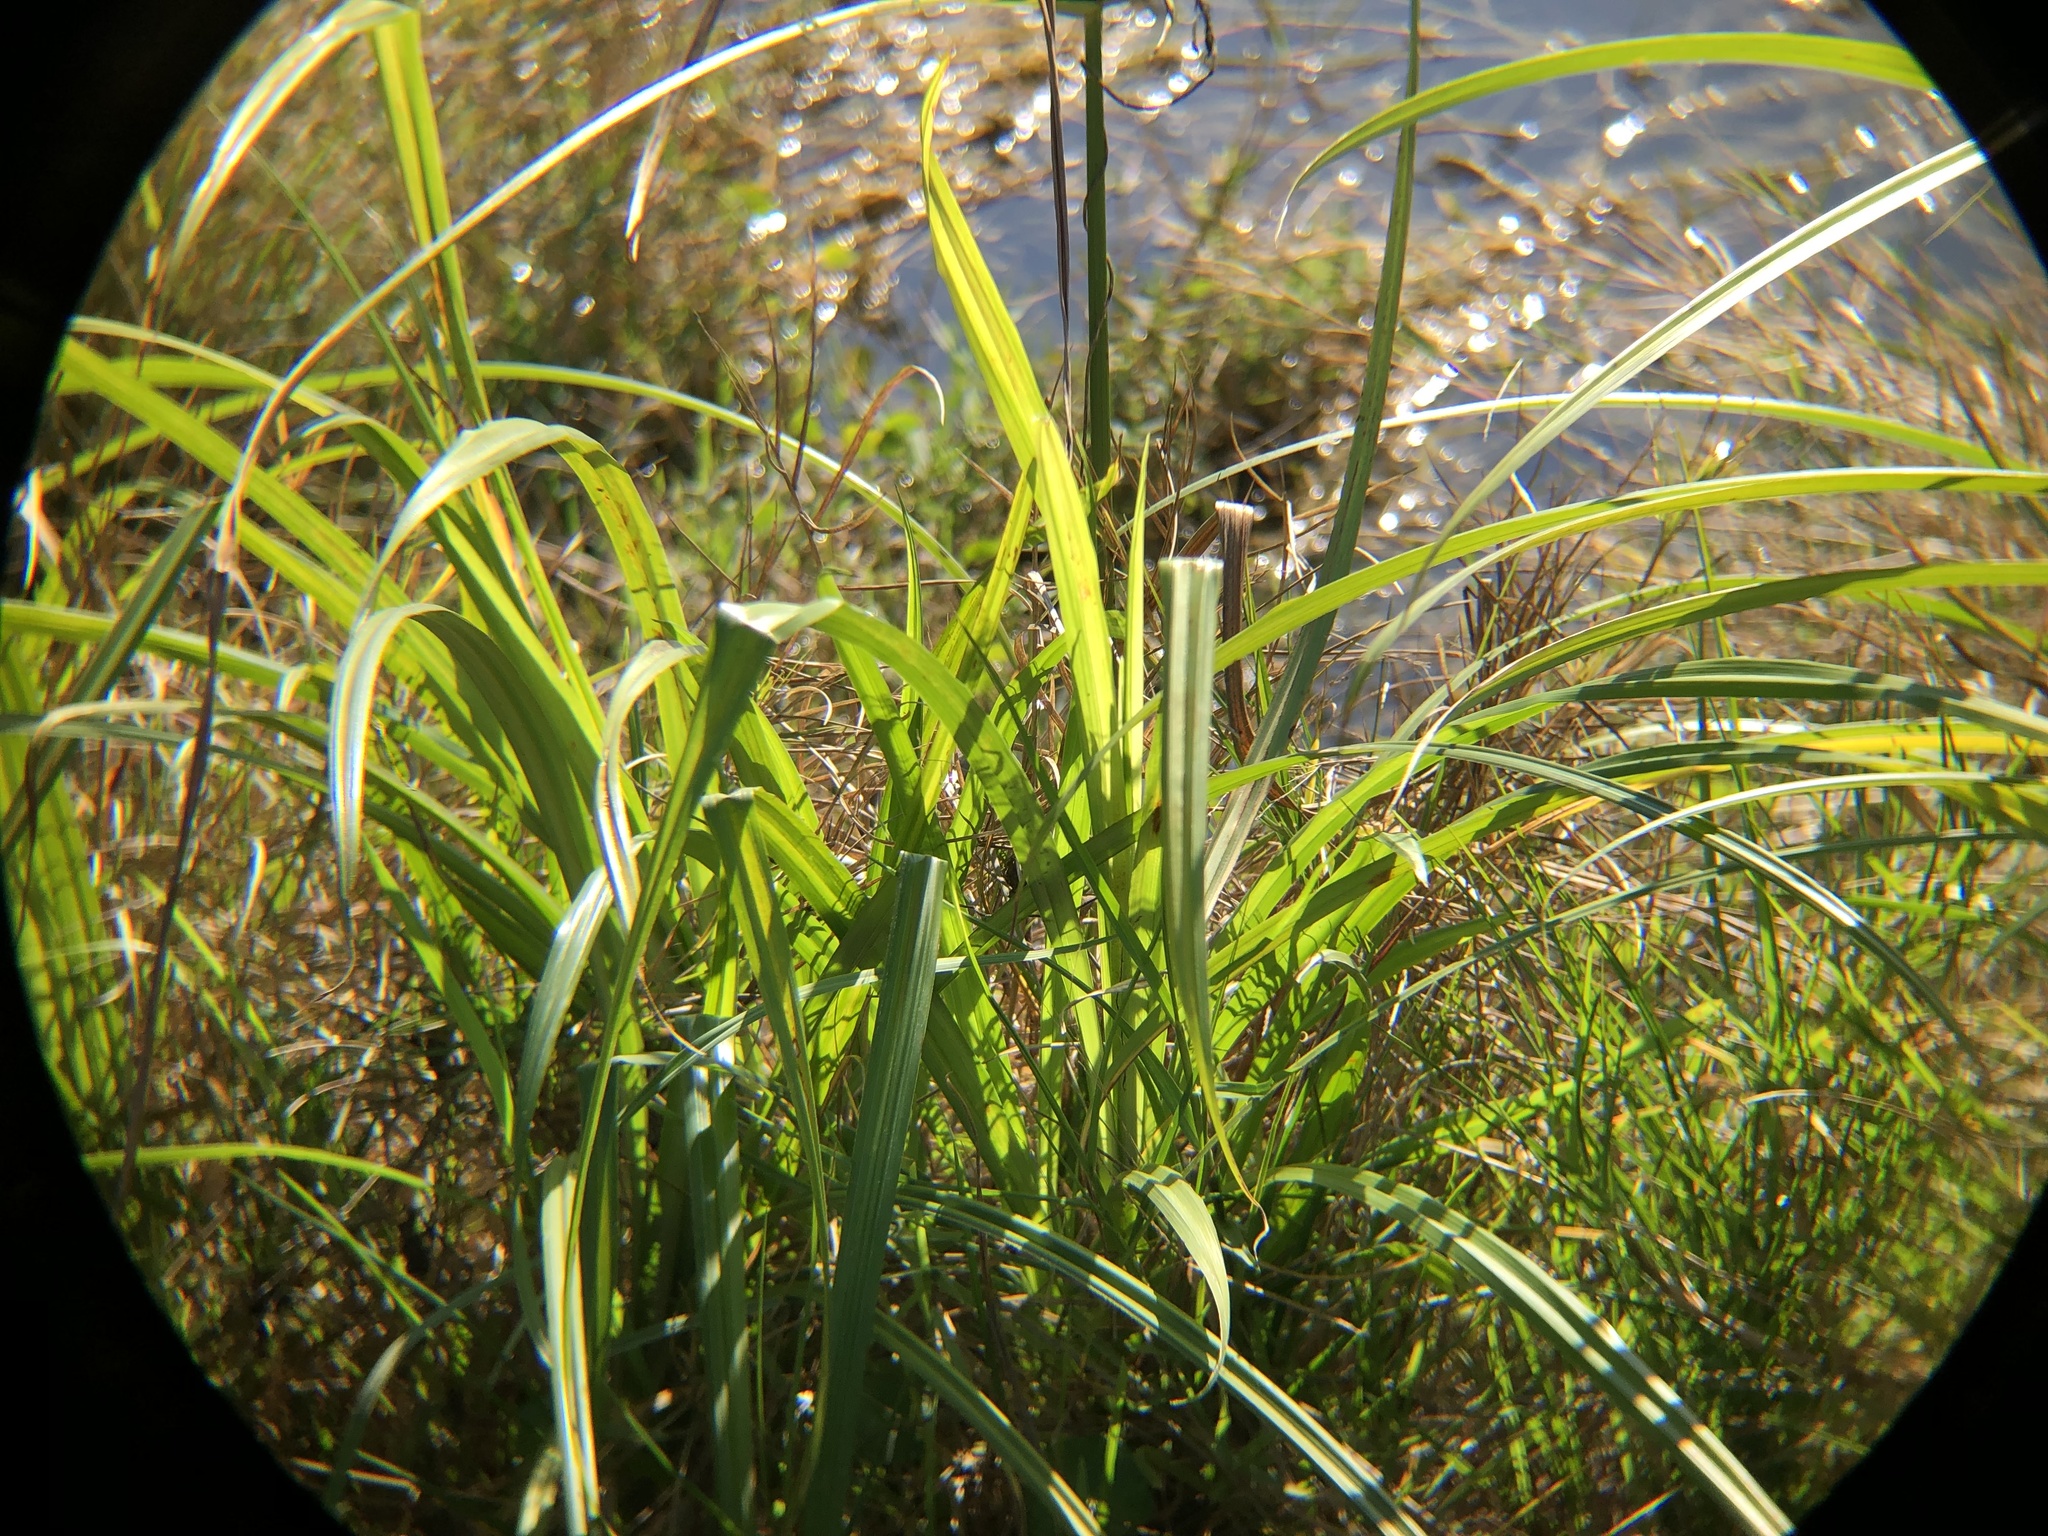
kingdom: Plantae
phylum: Tracheophyta
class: Liliopsida
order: Poales
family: Cyperaceae
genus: Cyperus
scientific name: Cyperus odoratus
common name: Fragrant flatsedge
